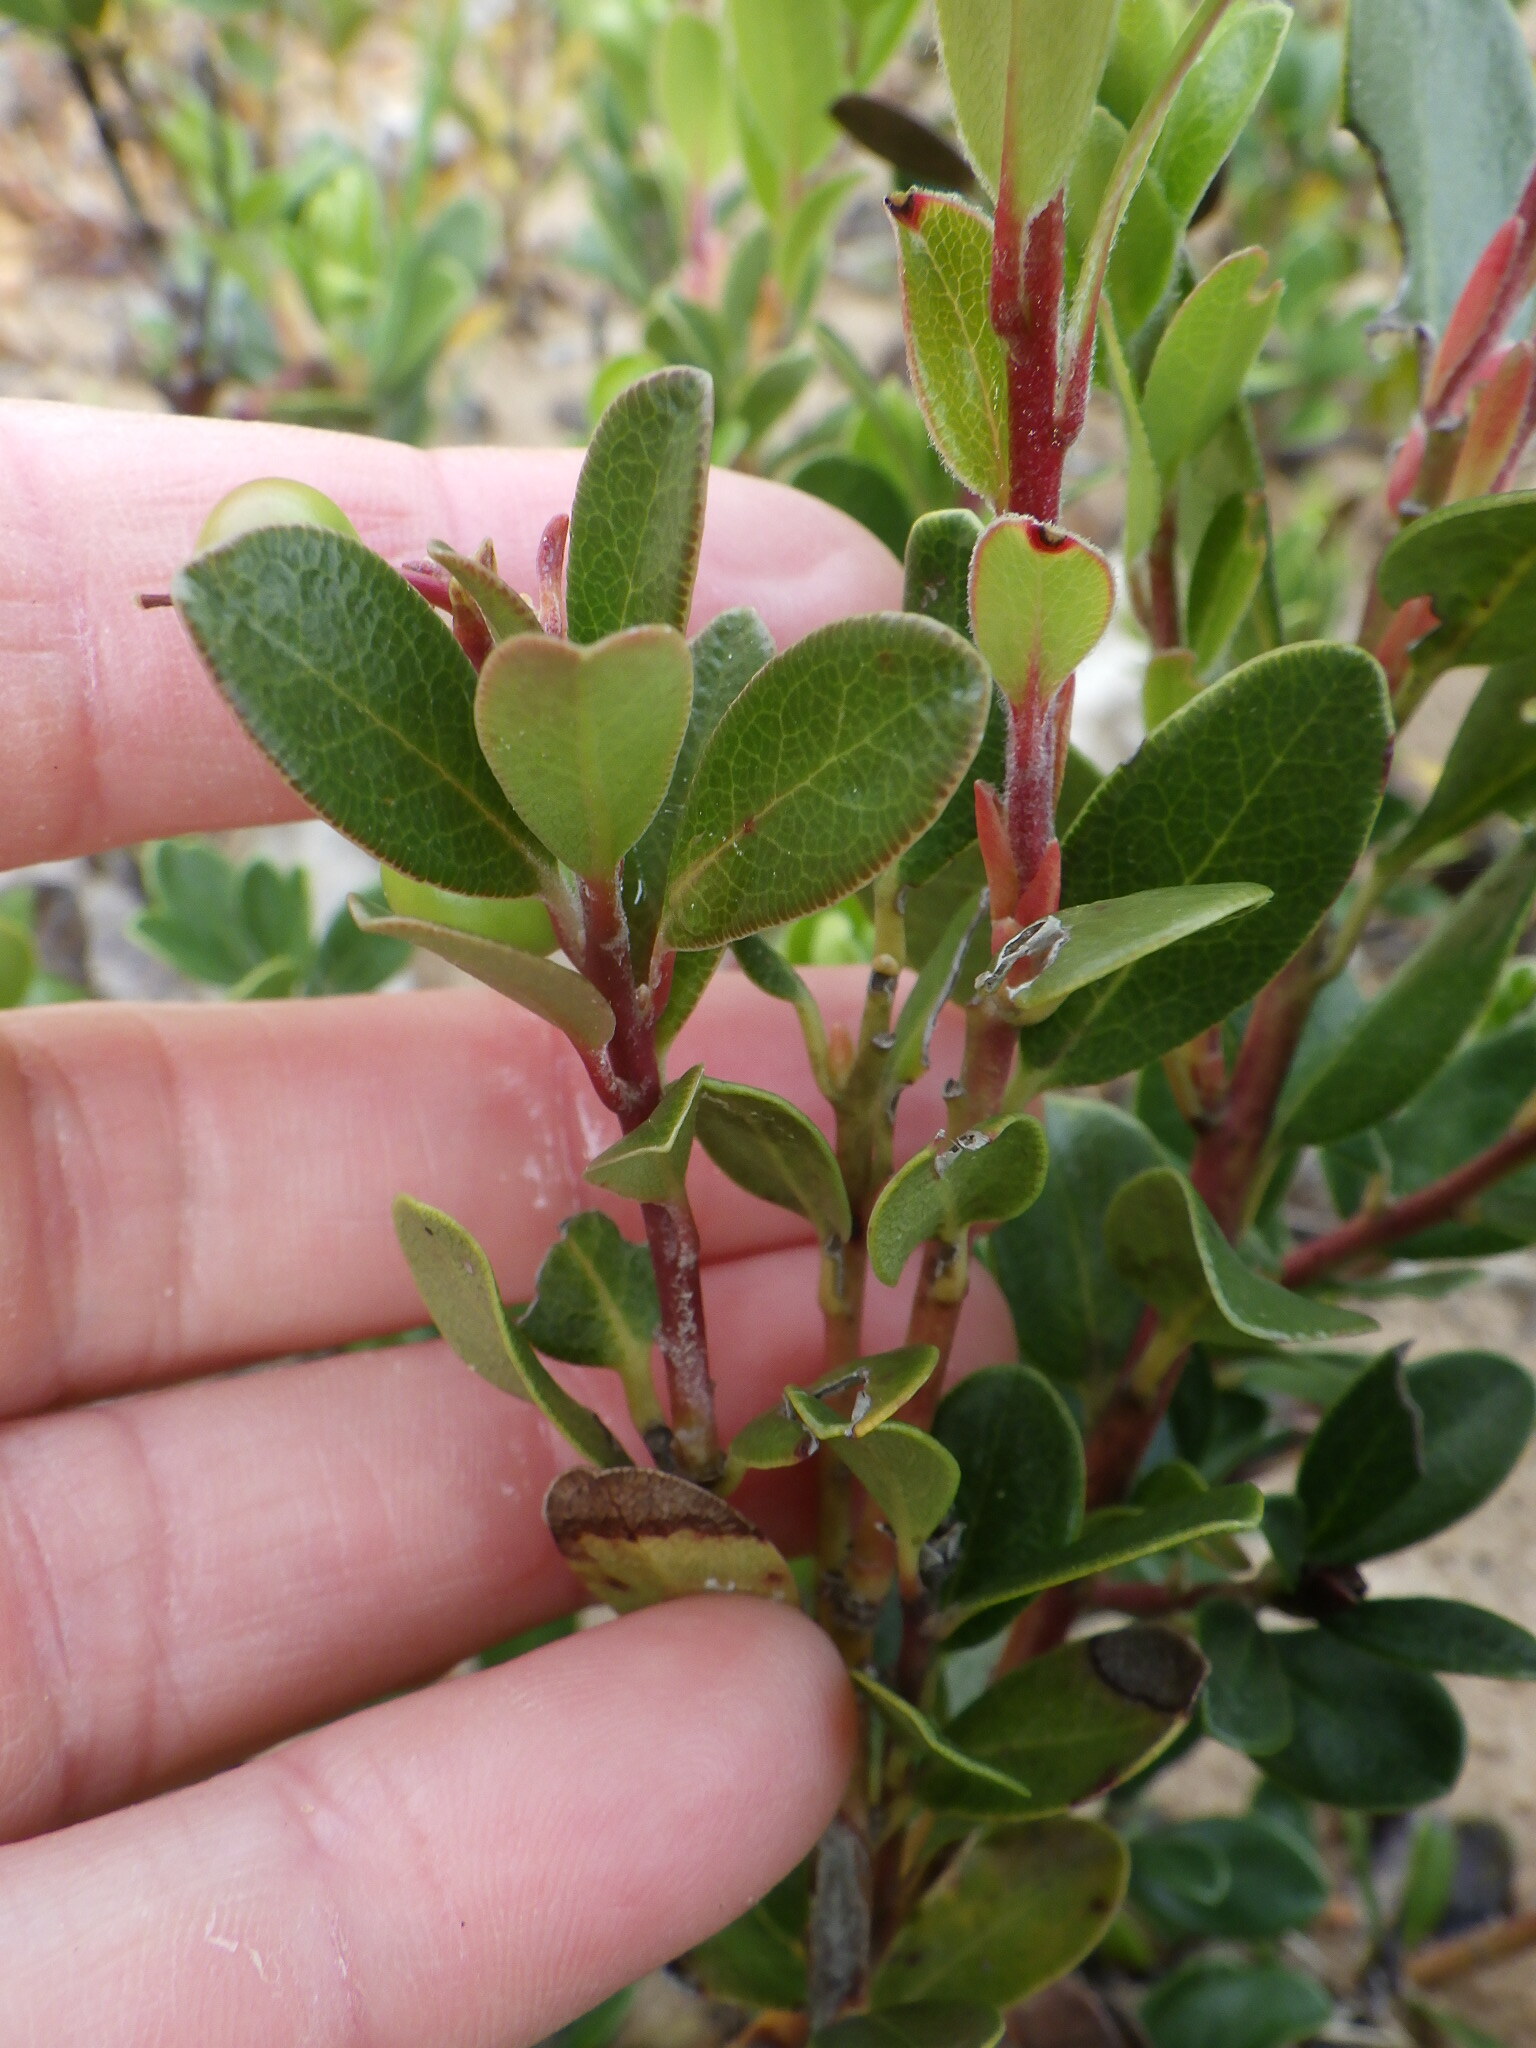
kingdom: Plantae
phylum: Tracheophyta
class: Magnoliopsida
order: Ericales
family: Ericaceae
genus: Arctostaphylos
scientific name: Arctostaphylos uva-ursi
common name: Bearberry
